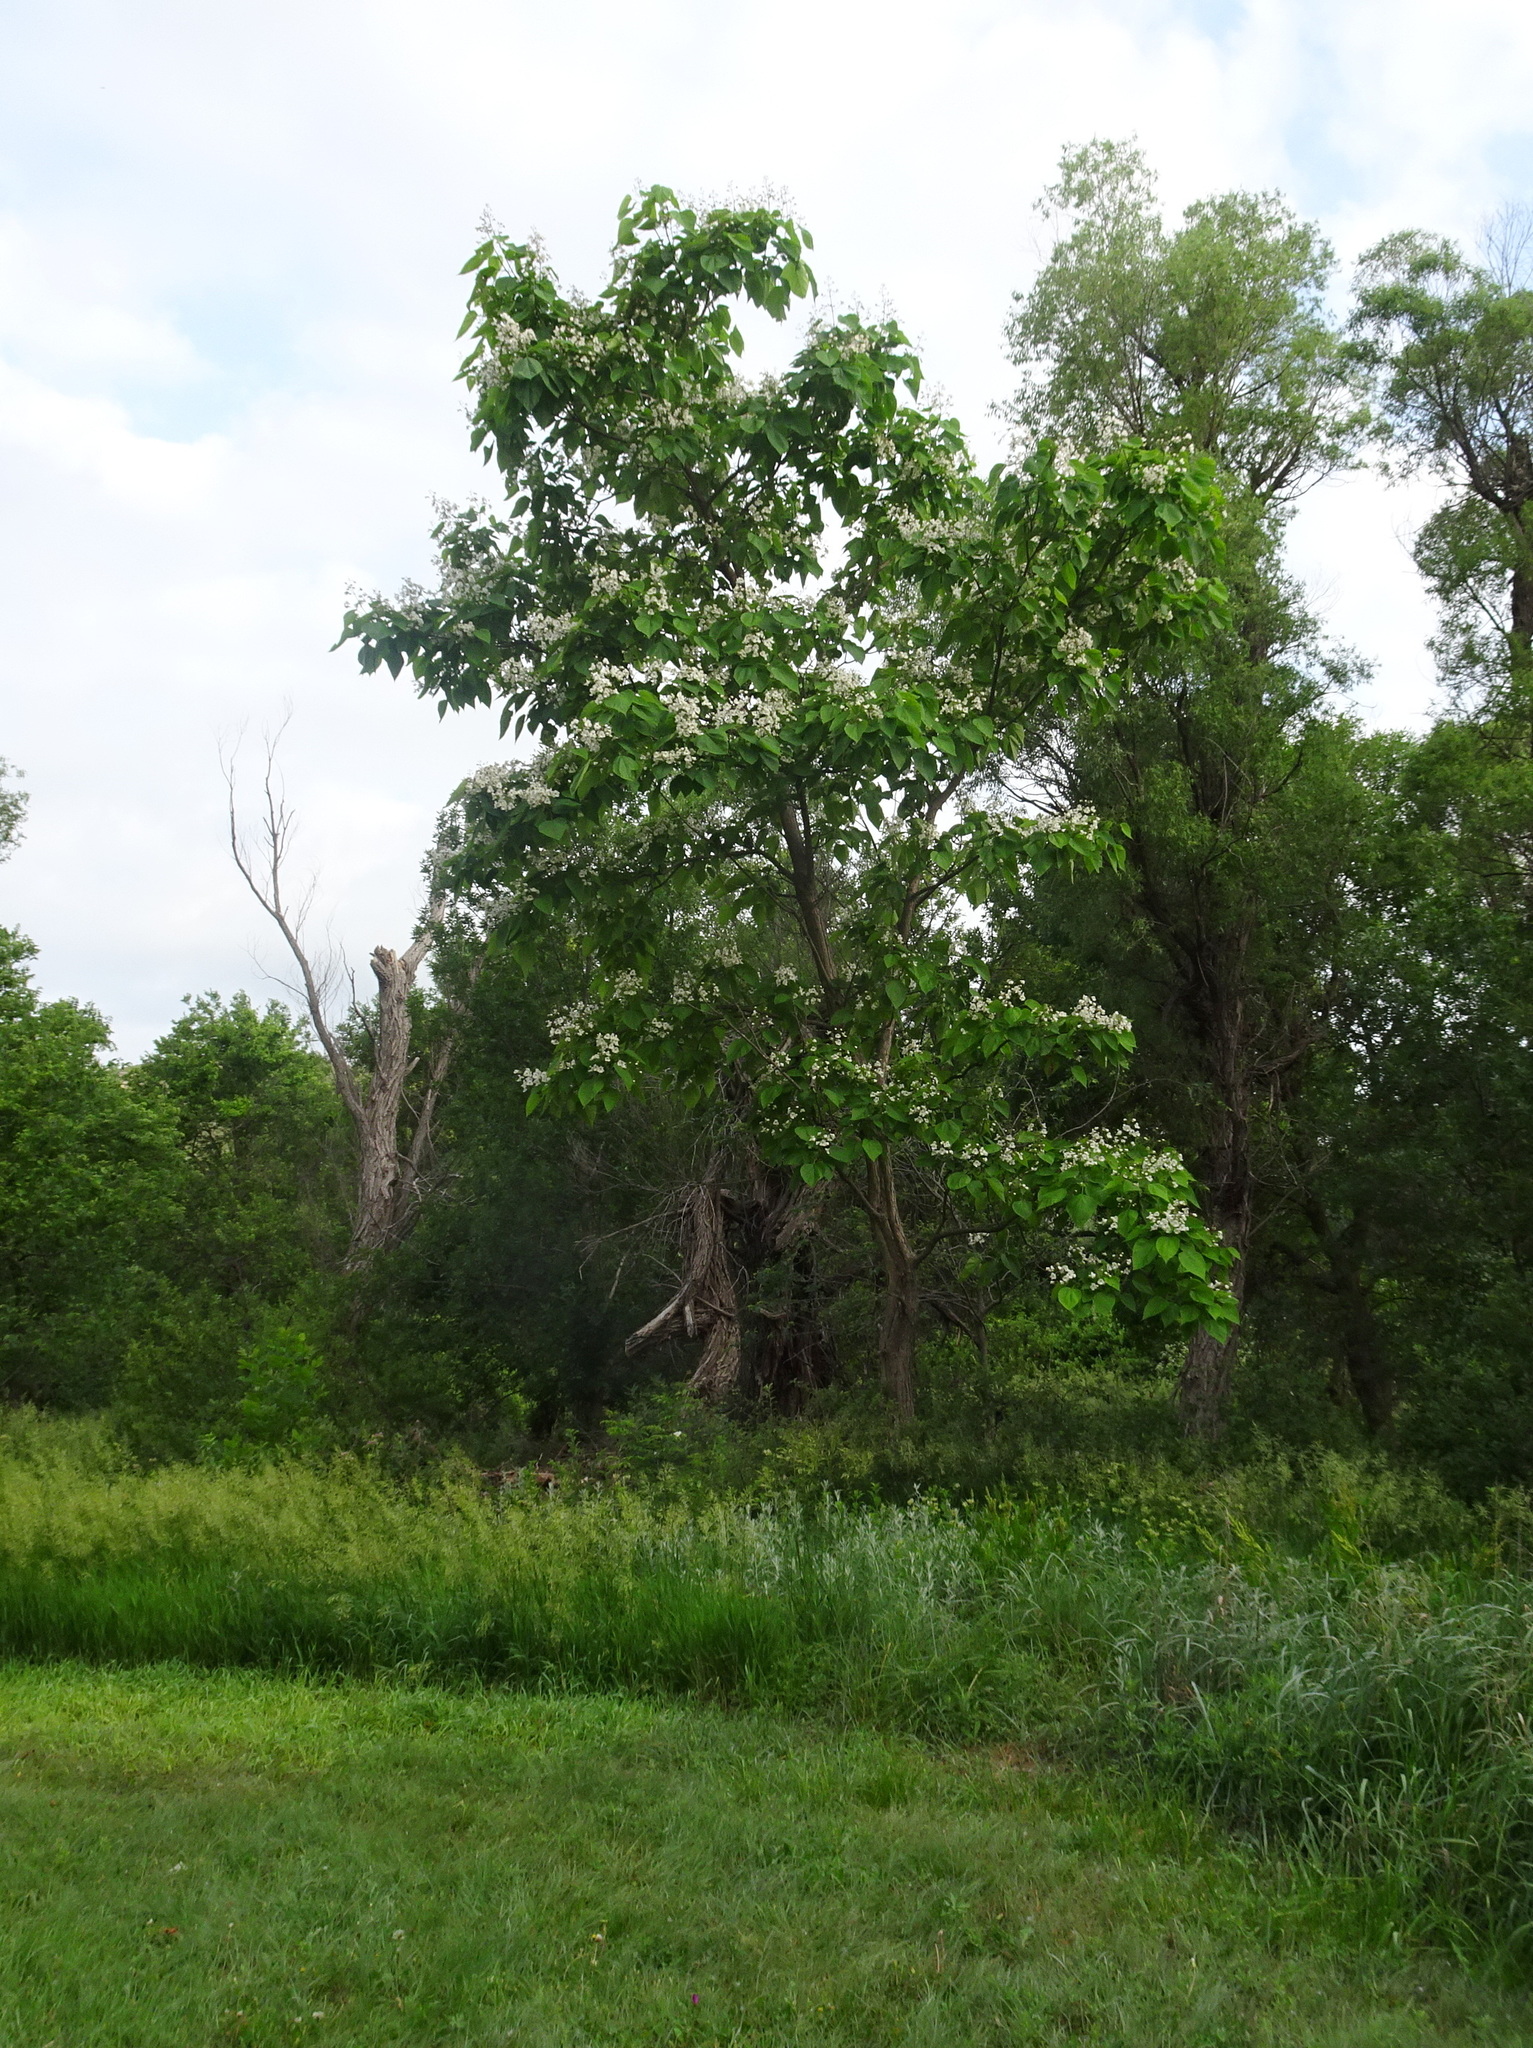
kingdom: Plantae
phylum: Tracheophyta
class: Magnoliopsida
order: Lamiales
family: Bignoniaceae
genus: Catalpa
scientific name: Catalpa speciosa
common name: Northern catalpa
